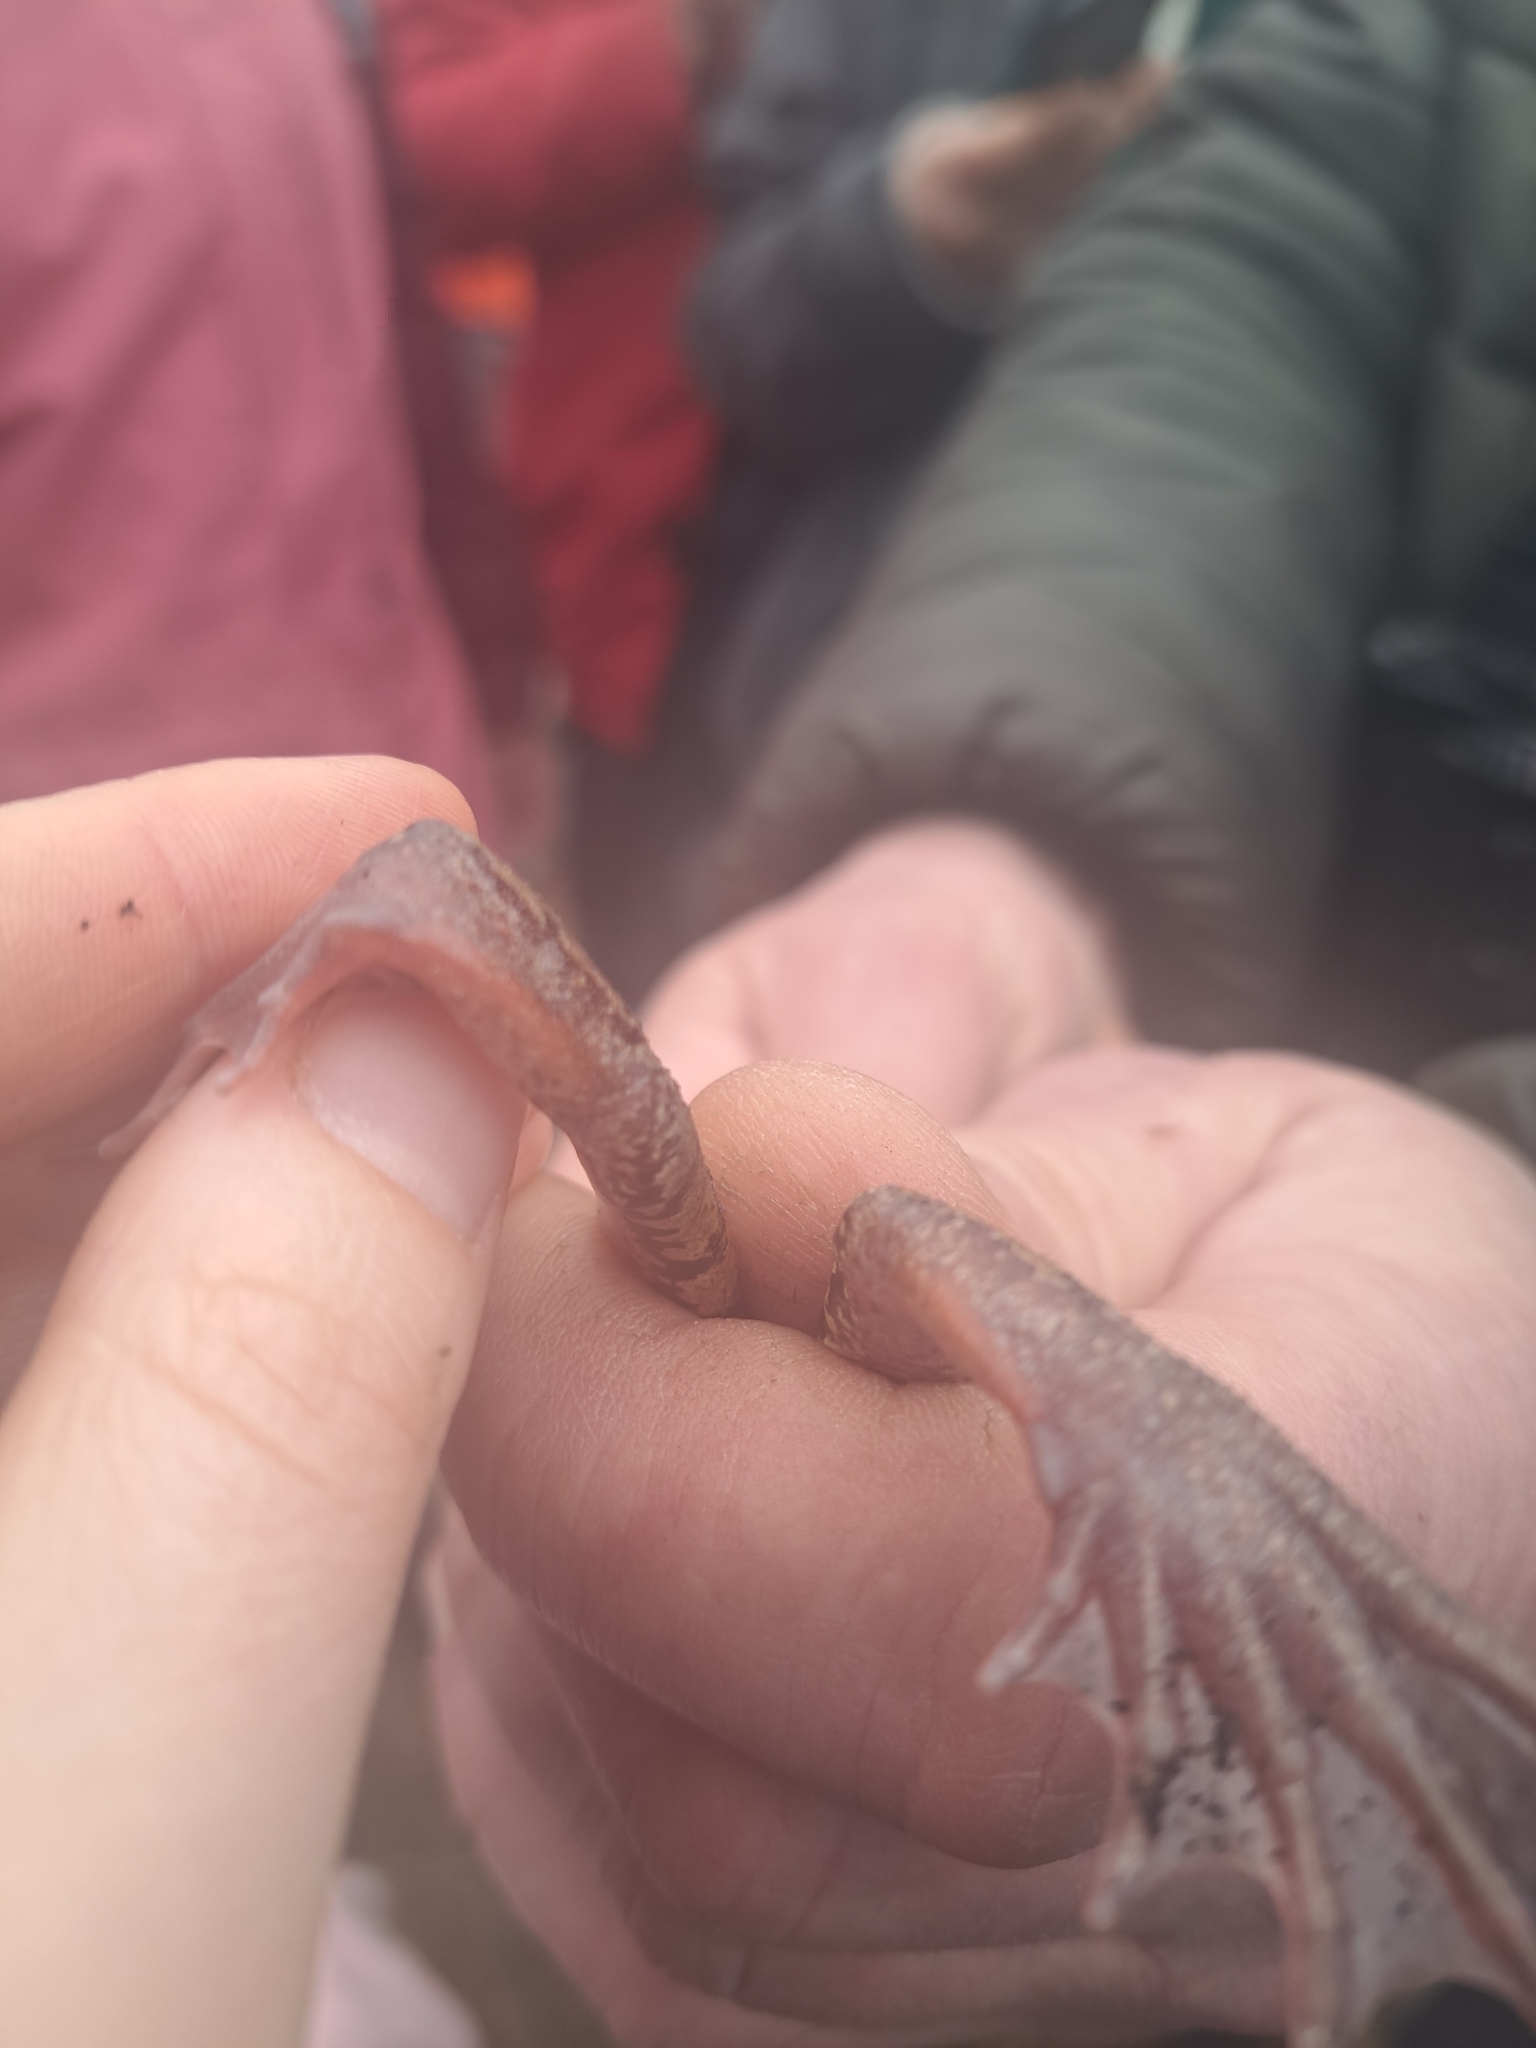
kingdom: Animalia
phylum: Chordata
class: Amphibia
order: Anura
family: Ranidae
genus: Rana
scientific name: Rana temporaria
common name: Common frog
